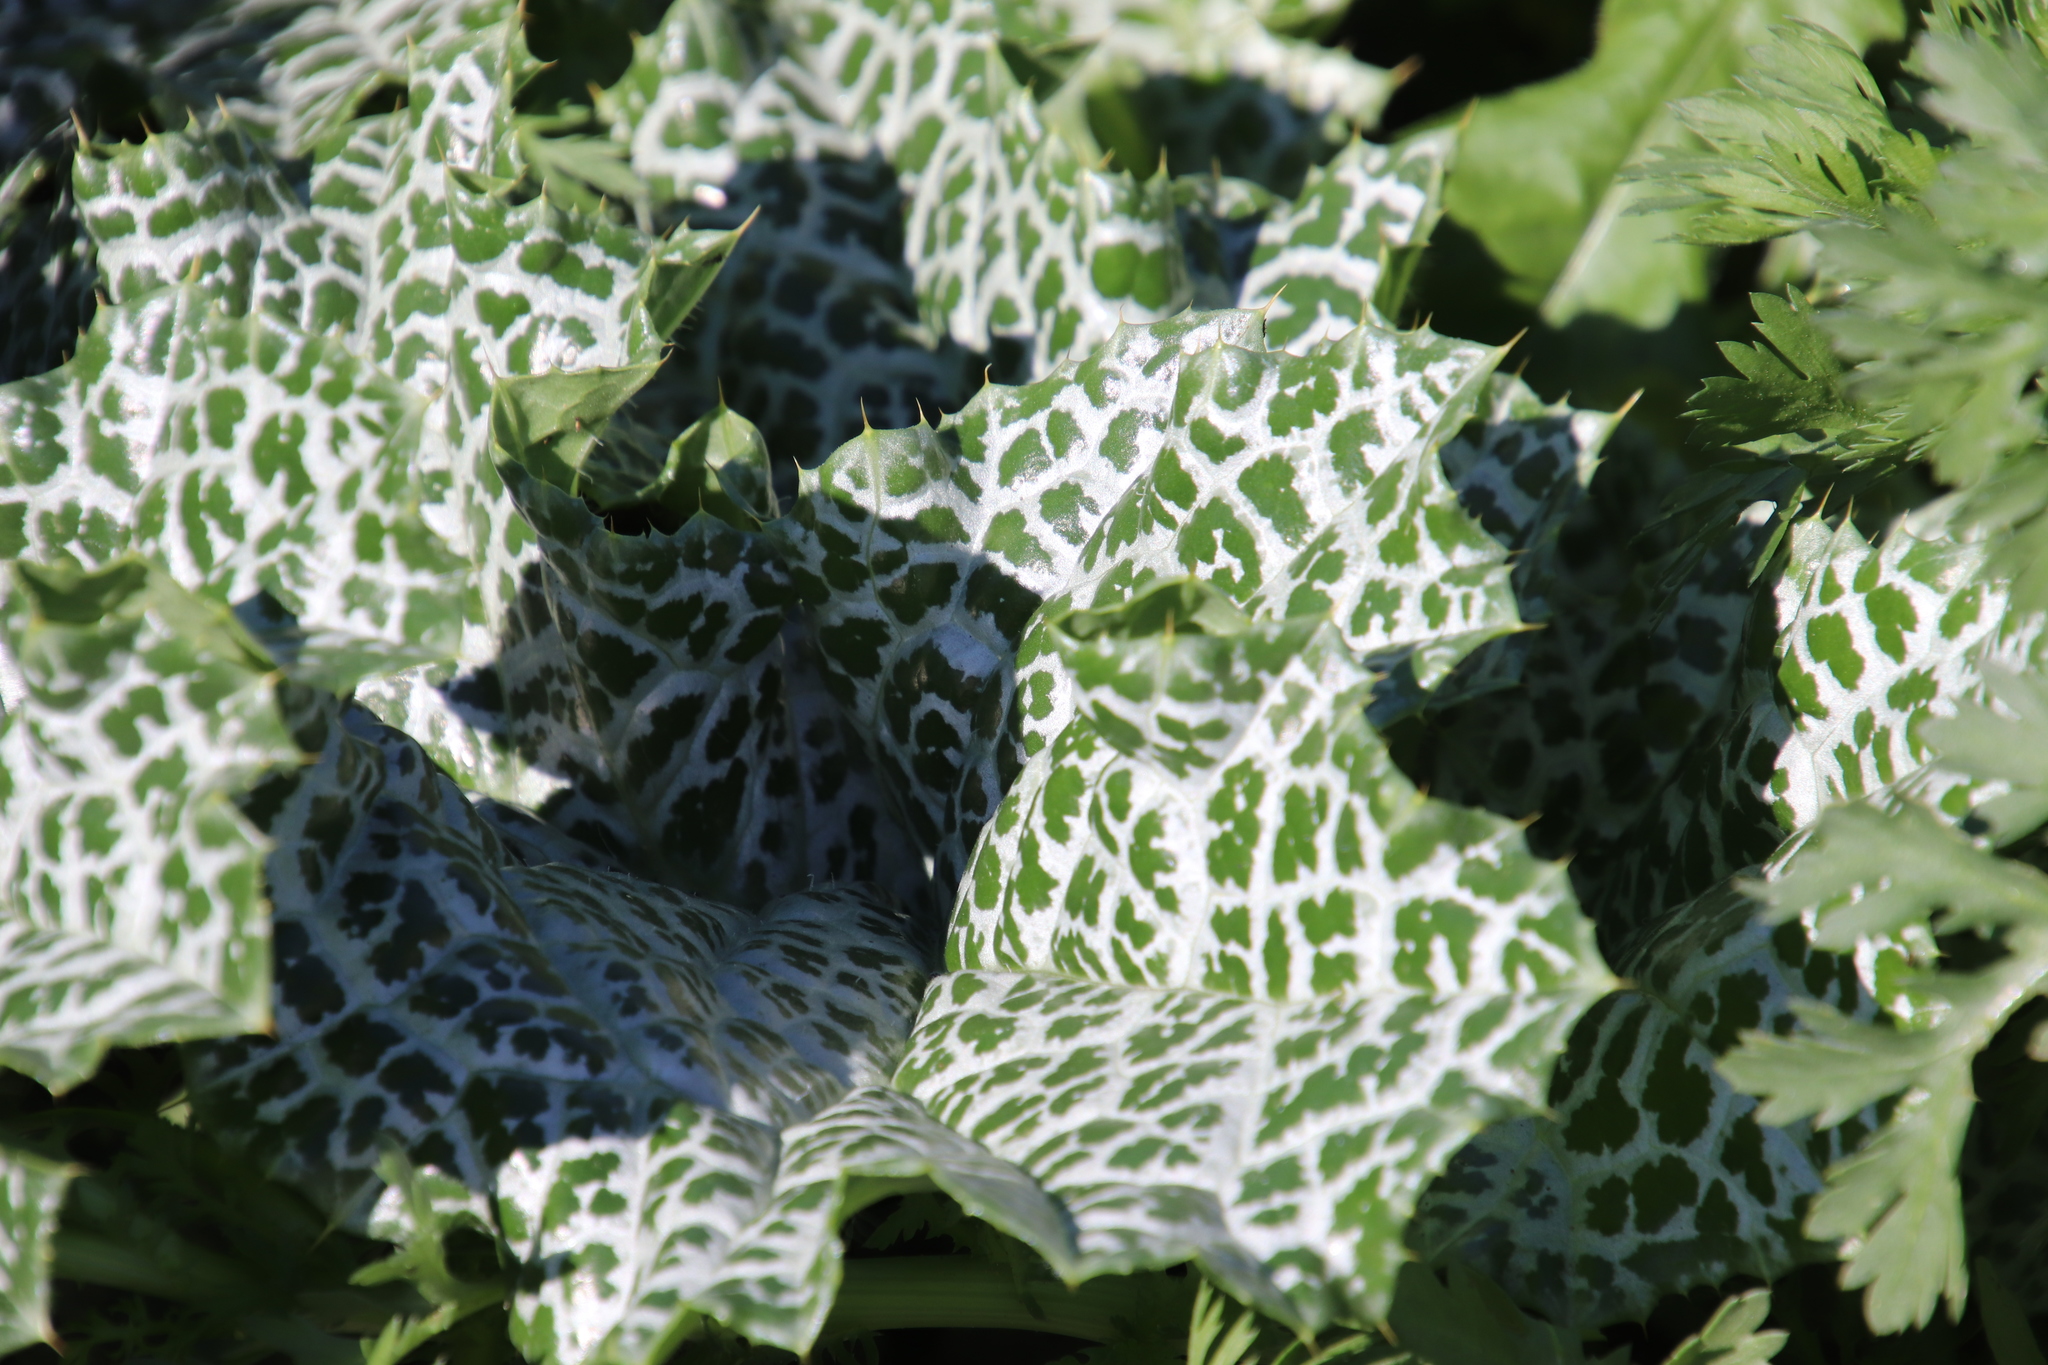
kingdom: Plantae
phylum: Tracheophyta
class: Magnoliopsida
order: Asterales
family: Asteraceae
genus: Silybum
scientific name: Silybum marianum
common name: Milk thistle
